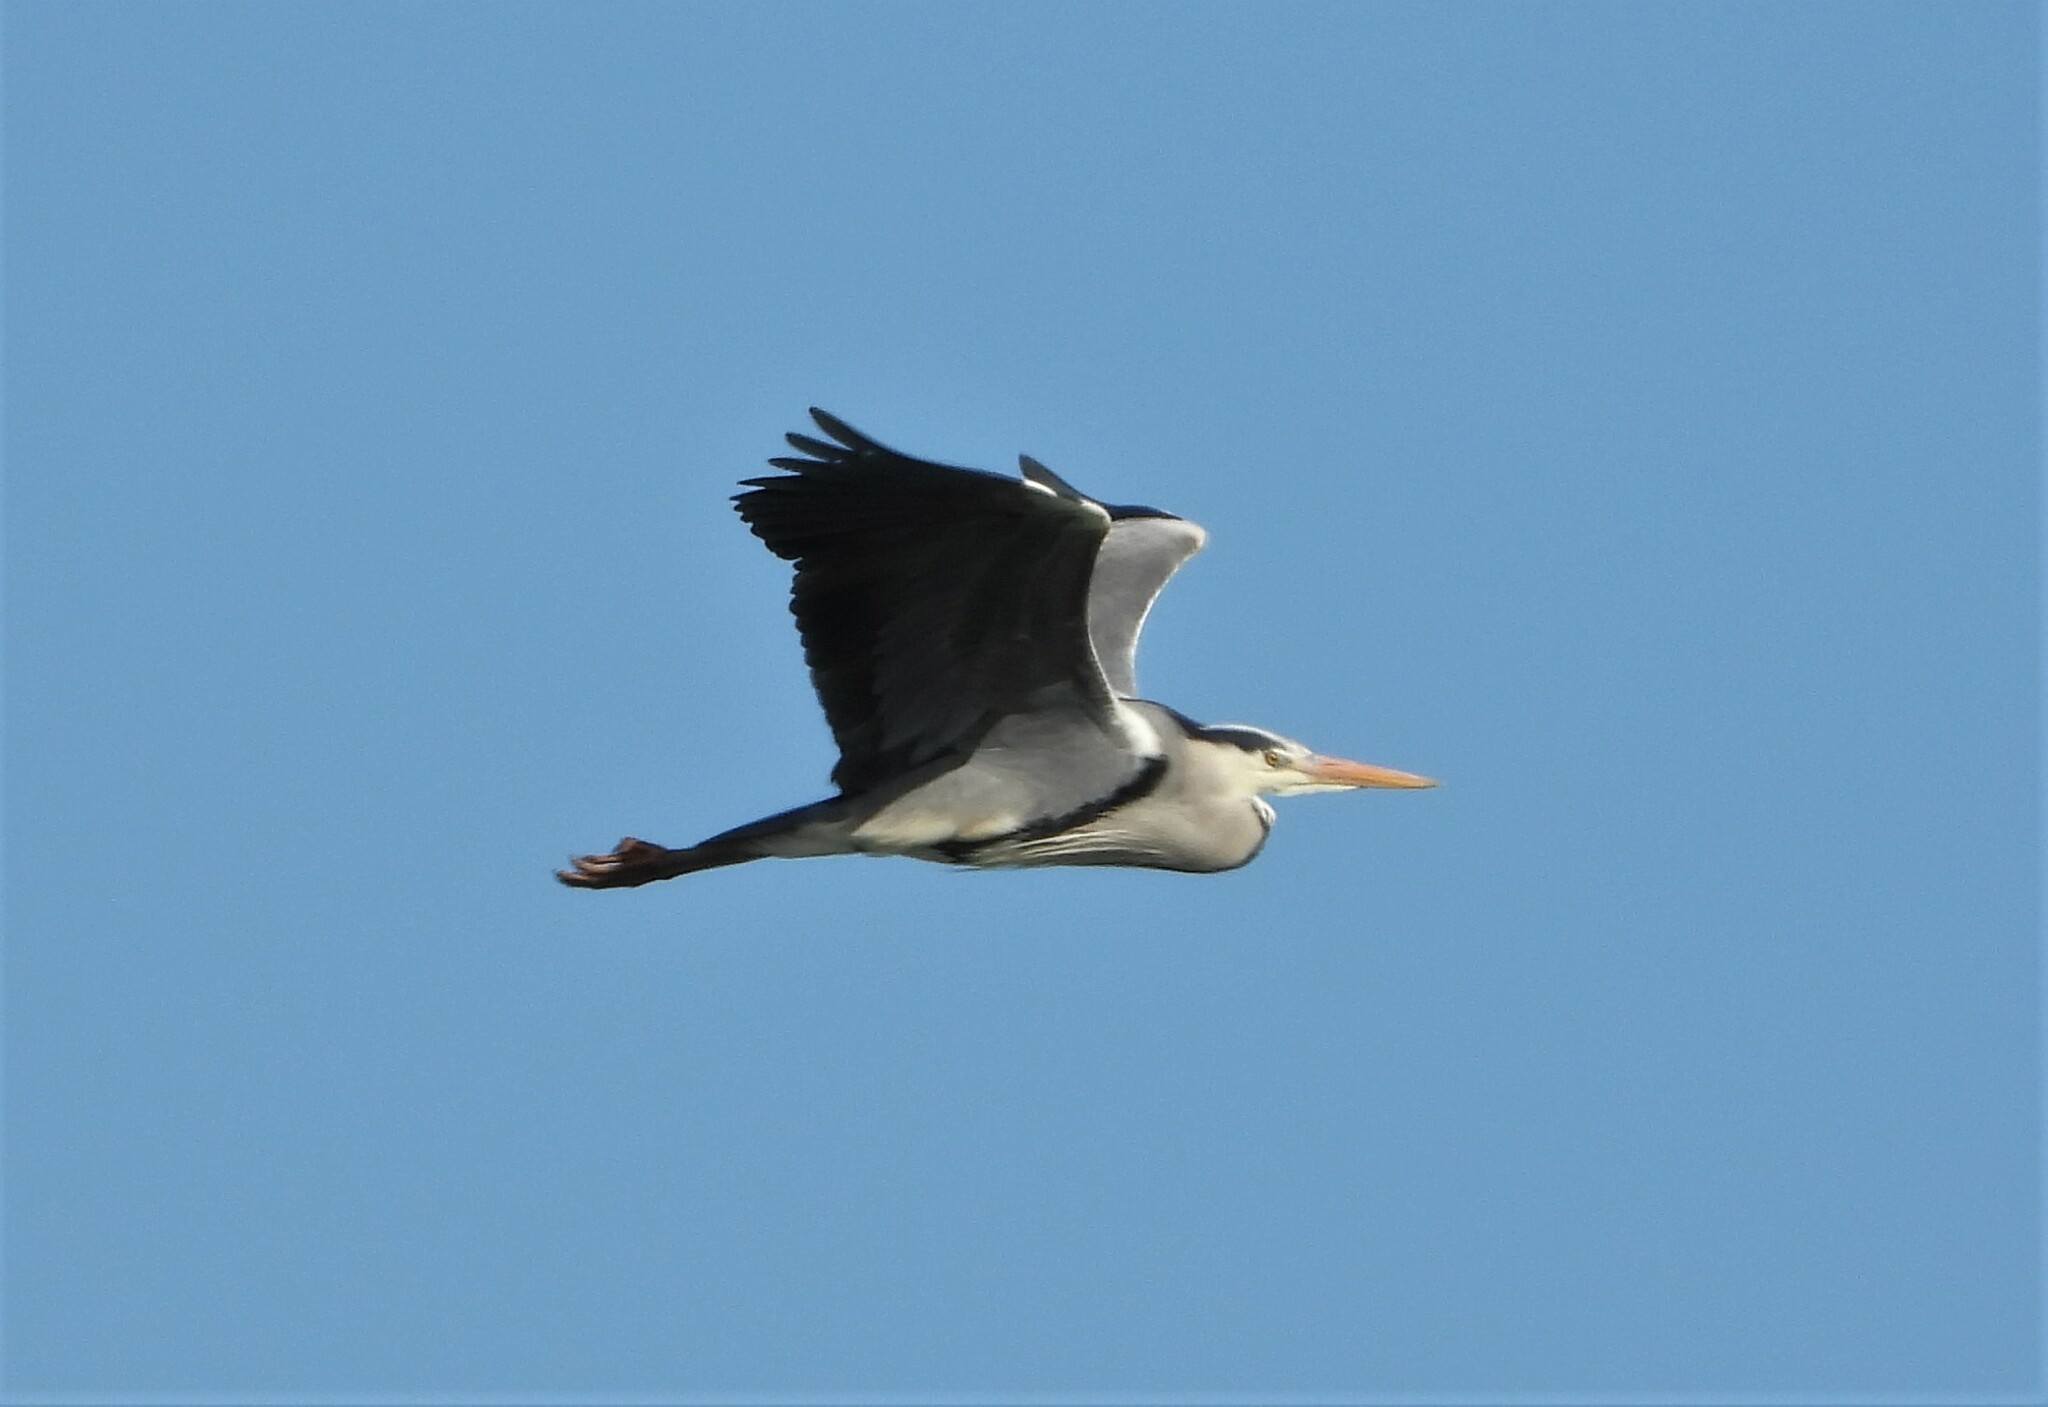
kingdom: Animalia
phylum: Chordata
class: Aves
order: Pelecaniformes
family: Ardeidae
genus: Ardea
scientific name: Ardea cinerea
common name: Grey heron
